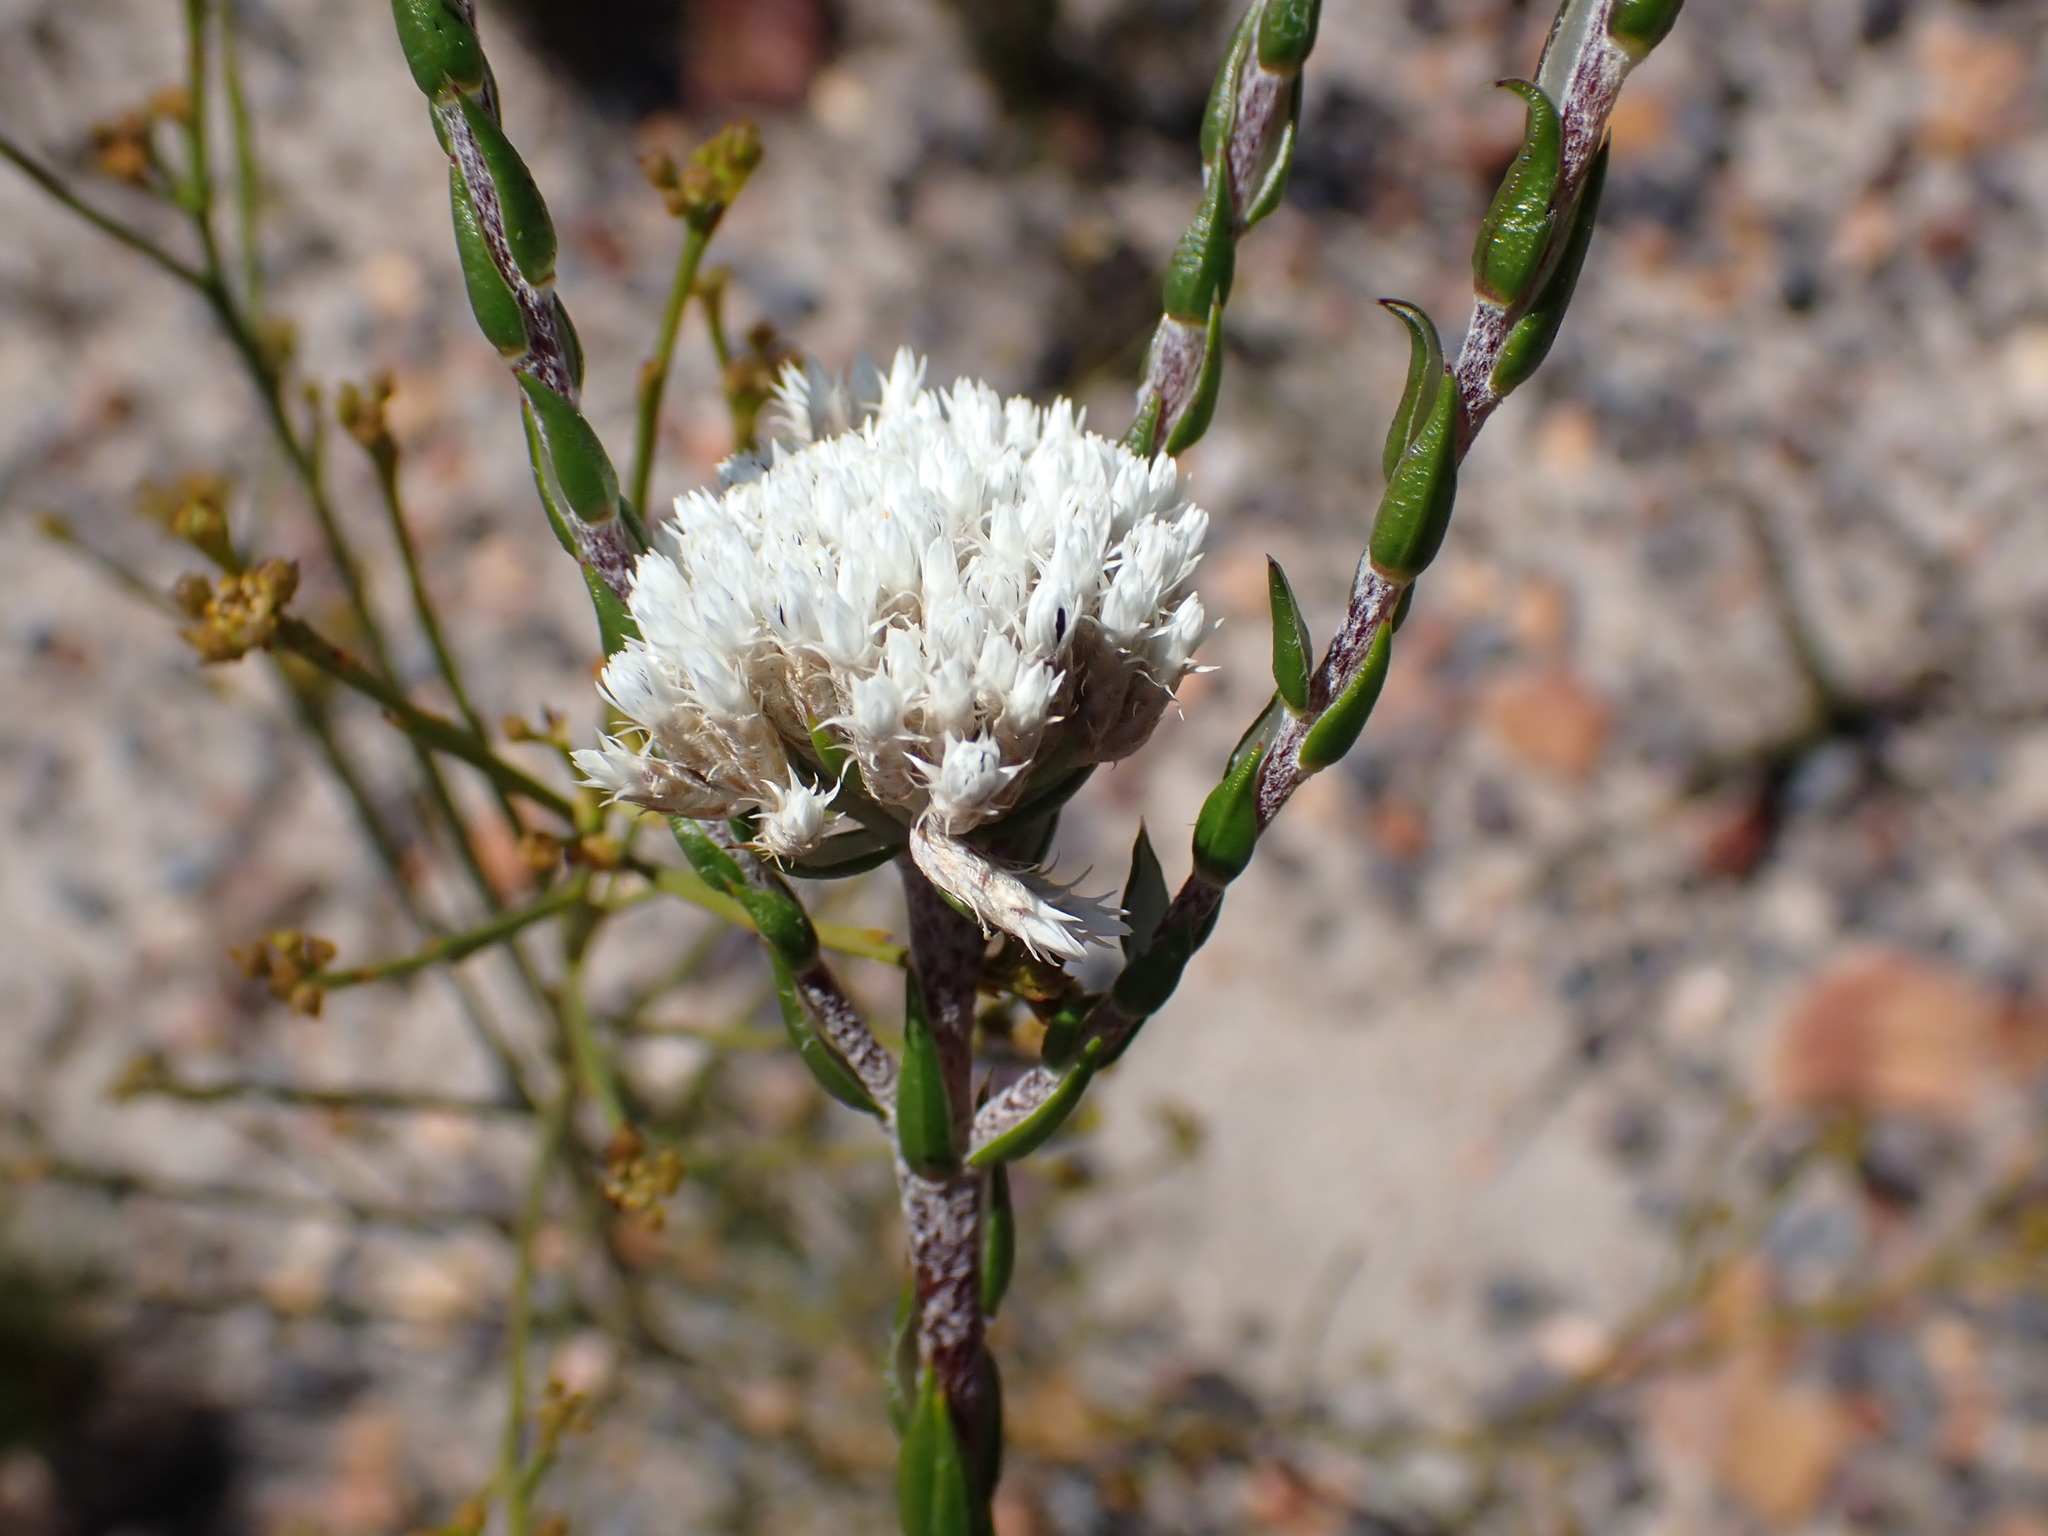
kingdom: Plantae
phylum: Tracheophyta
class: Magnoliopsida
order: Asterales
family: Asteraceae
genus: Metalasia
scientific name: Metalasia pulcherrima
